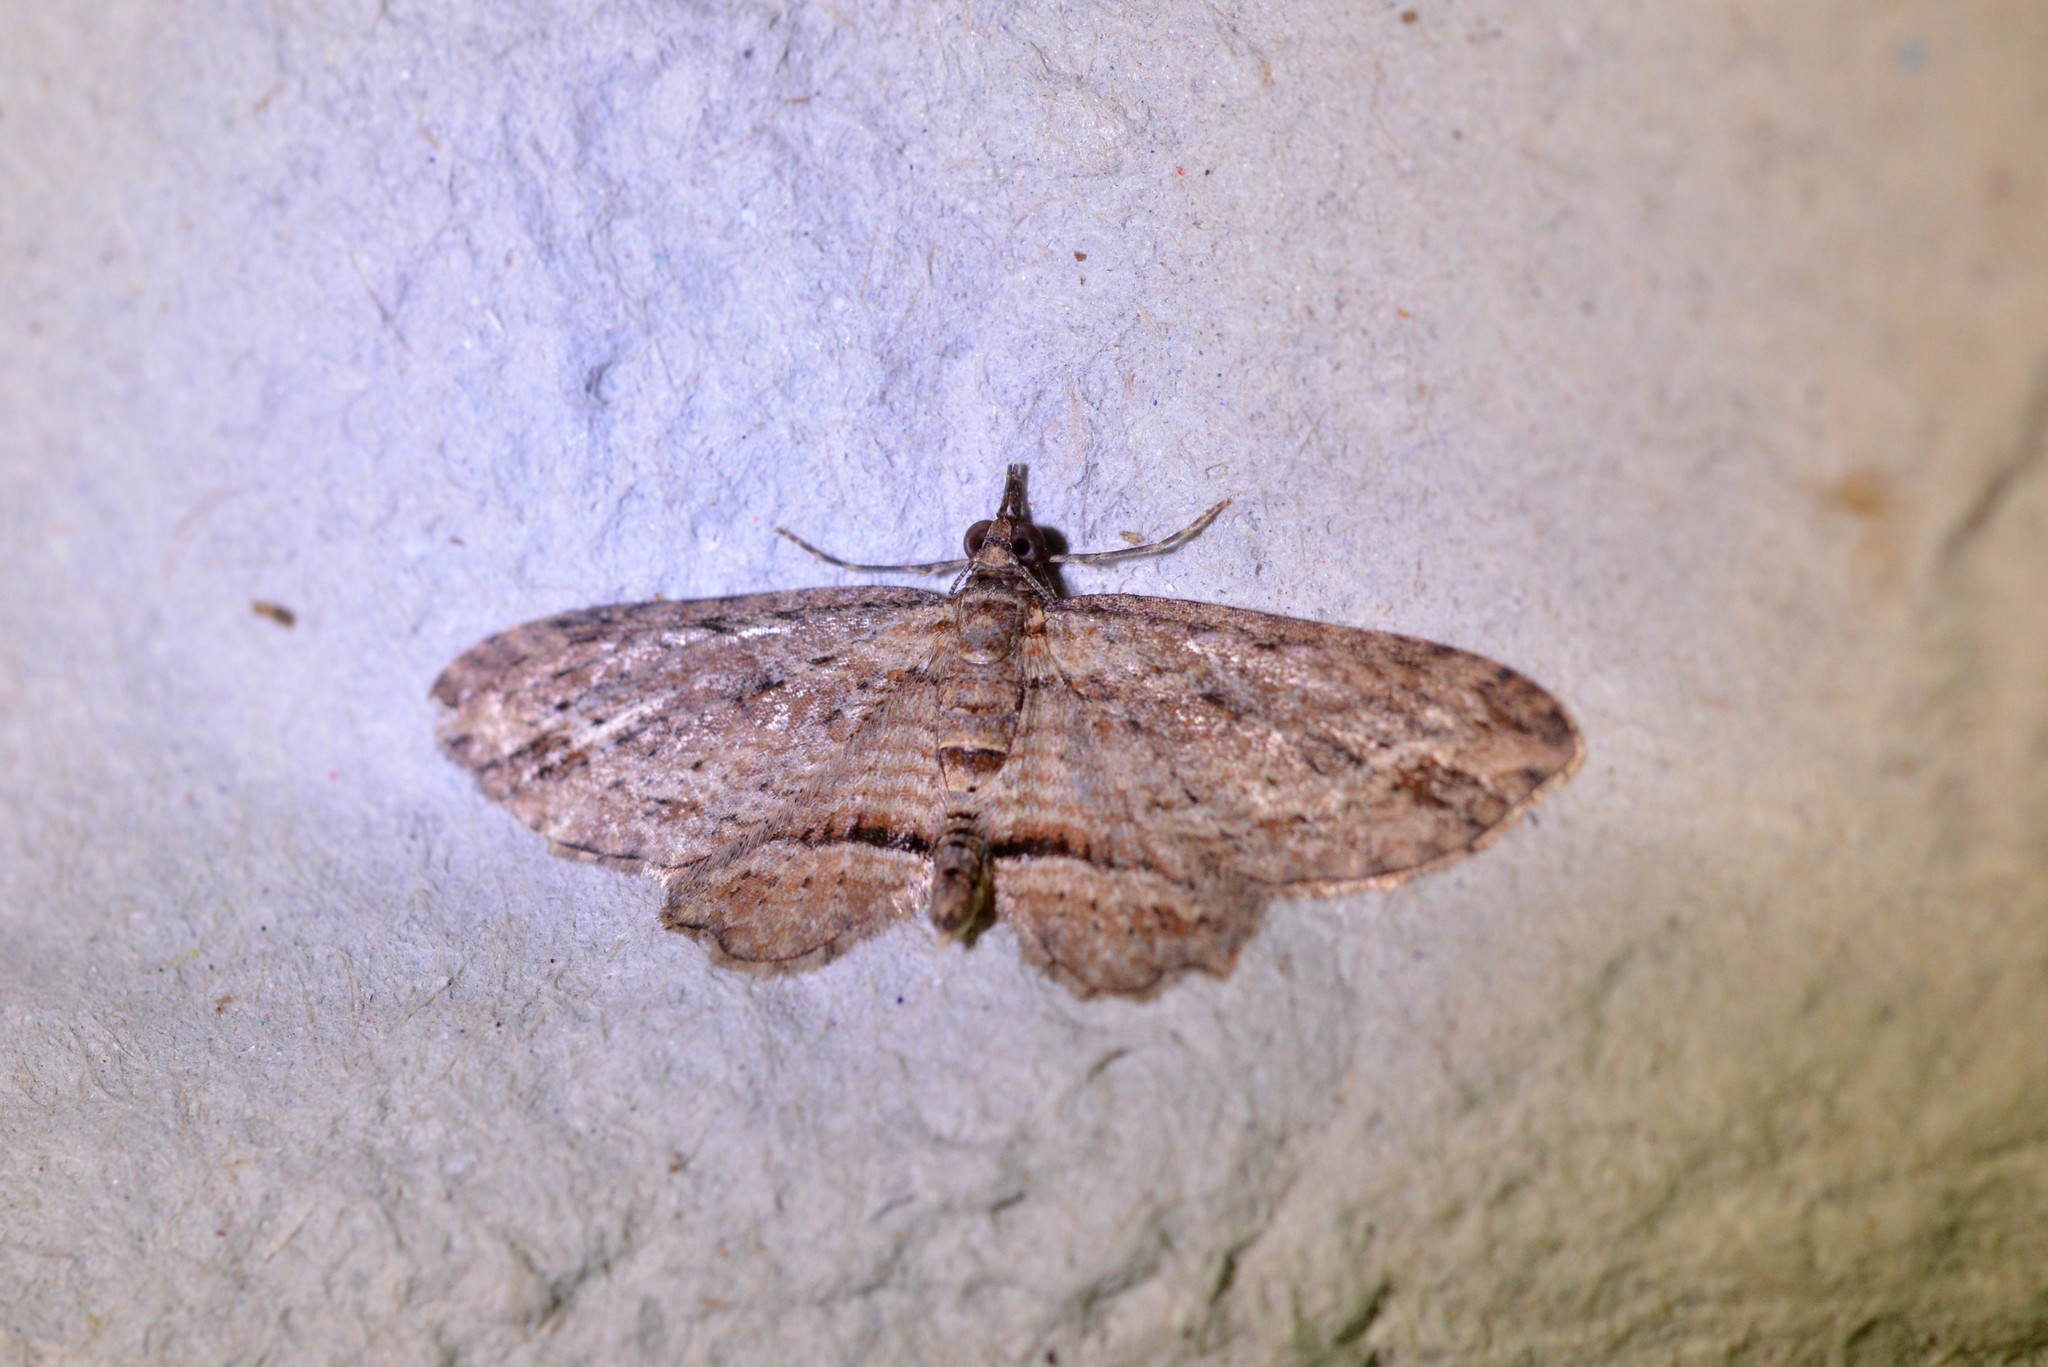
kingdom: Animalia
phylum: Arthropoda
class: Insecta
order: Lepidoptera
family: Geometridae
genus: Chloroclystis
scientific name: Chloroclystis filata
